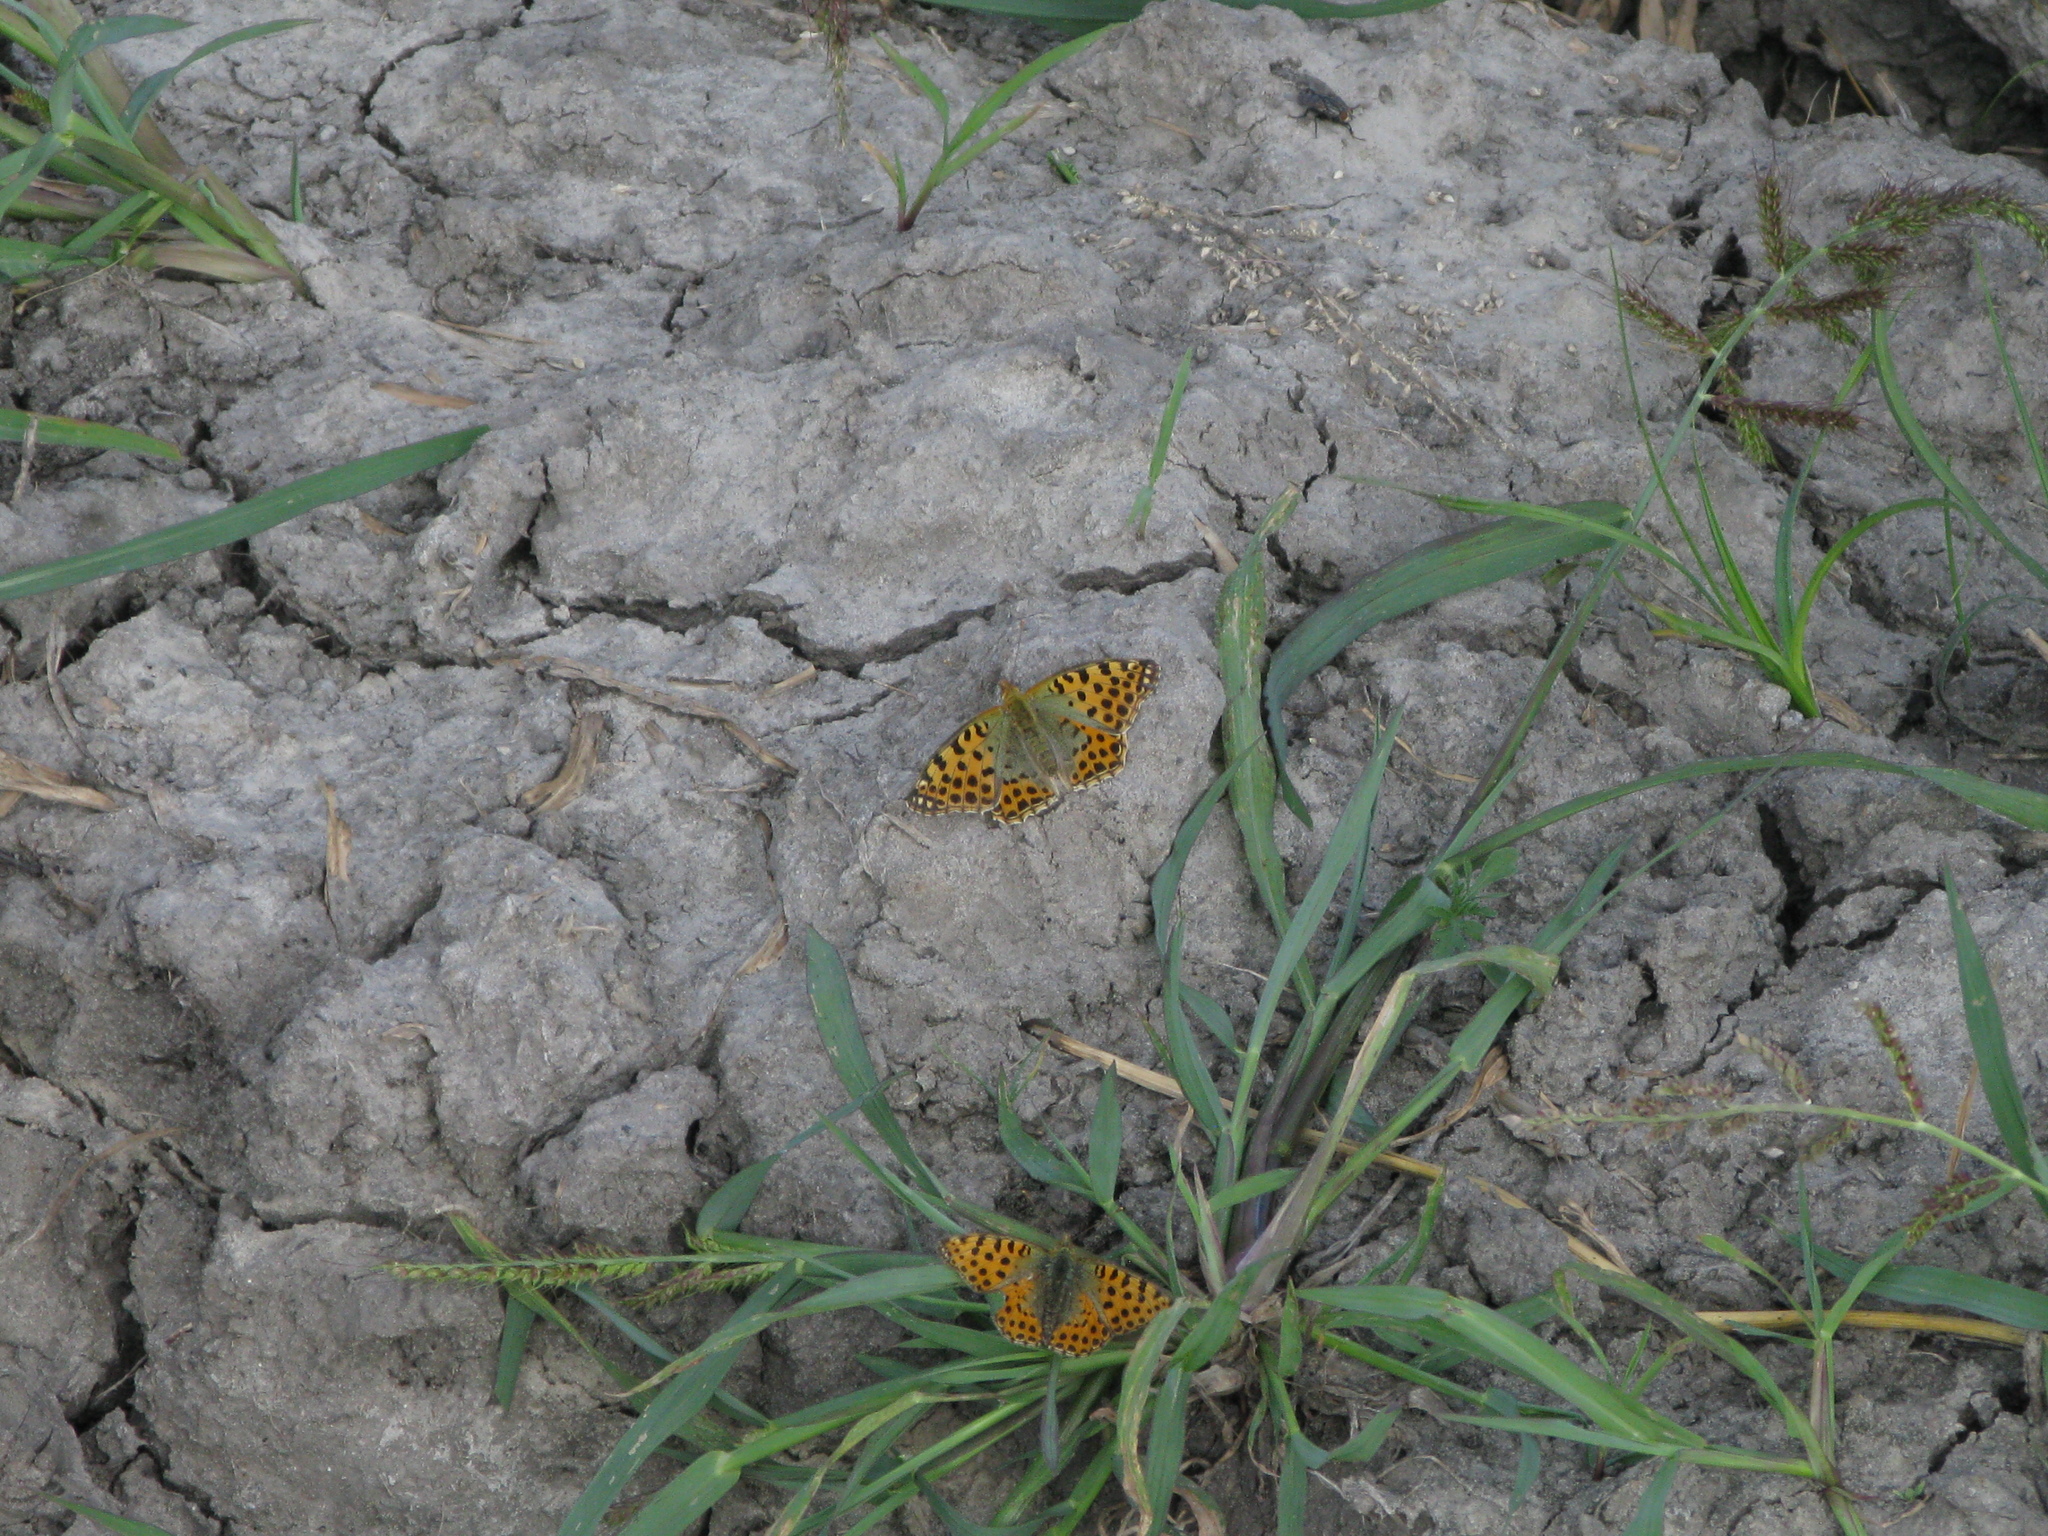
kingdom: Animalia
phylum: Arthropoda
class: Insecta
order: Lepidoptera
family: Nymphalidae
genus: Issoria
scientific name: Issoria lathonia
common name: Queen of spain fritillary
